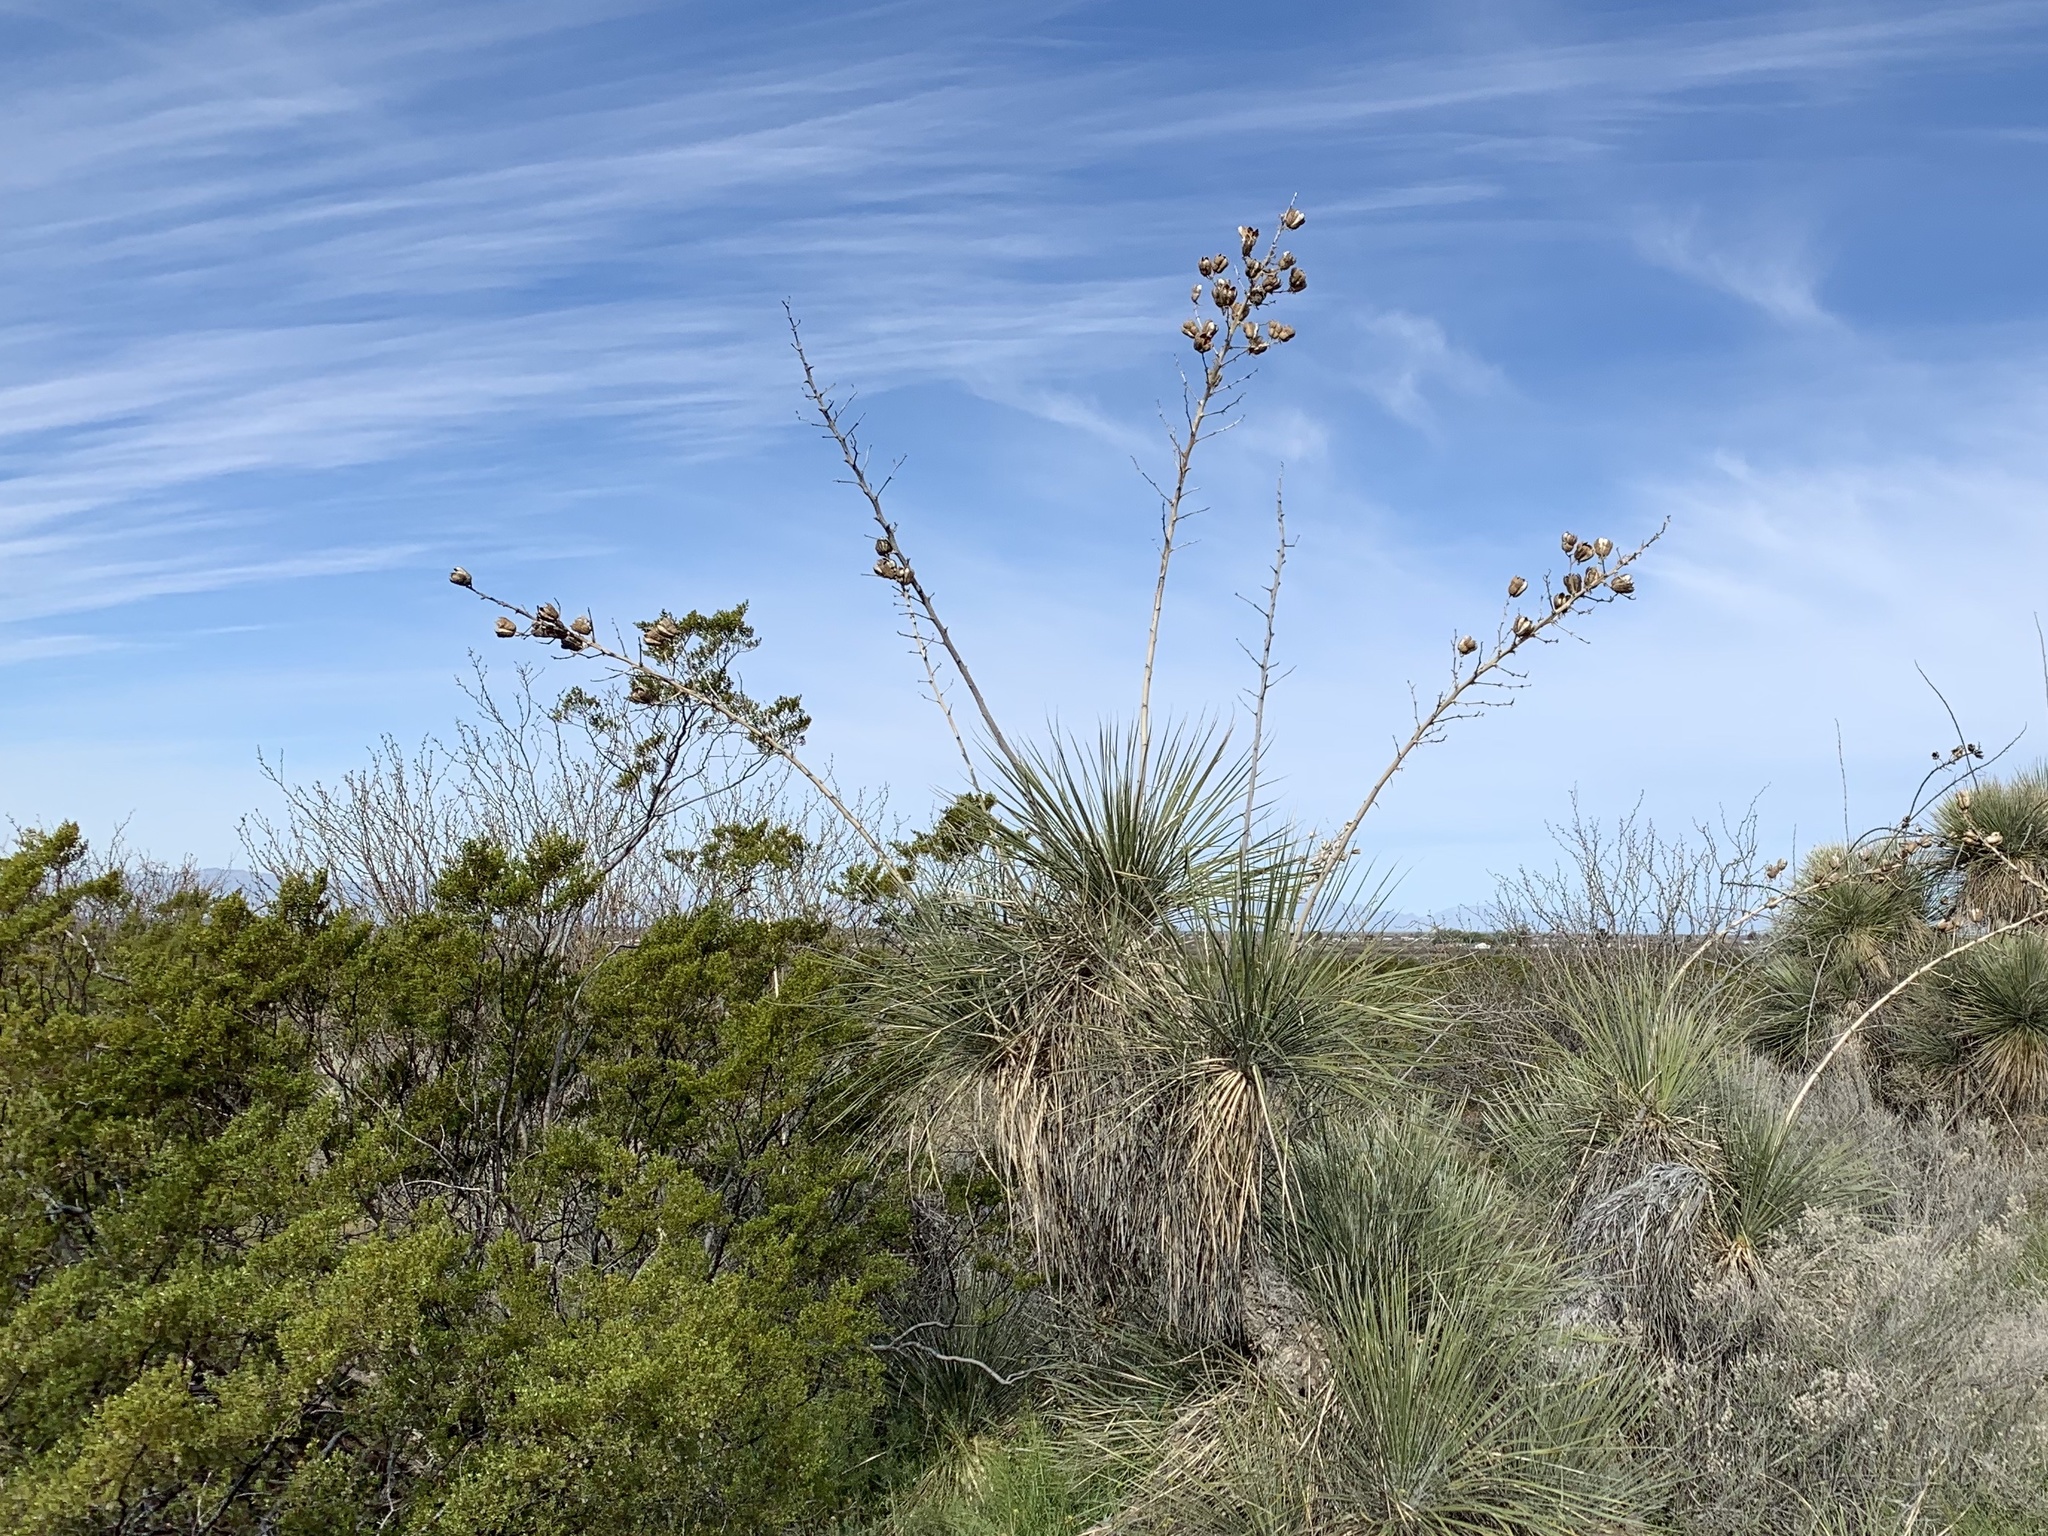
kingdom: Plantae
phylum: Tracheophyta
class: Liliopsida
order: Asparagales
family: Asparagaceae
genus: Yucca
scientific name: Yucca elata
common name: Palmella
